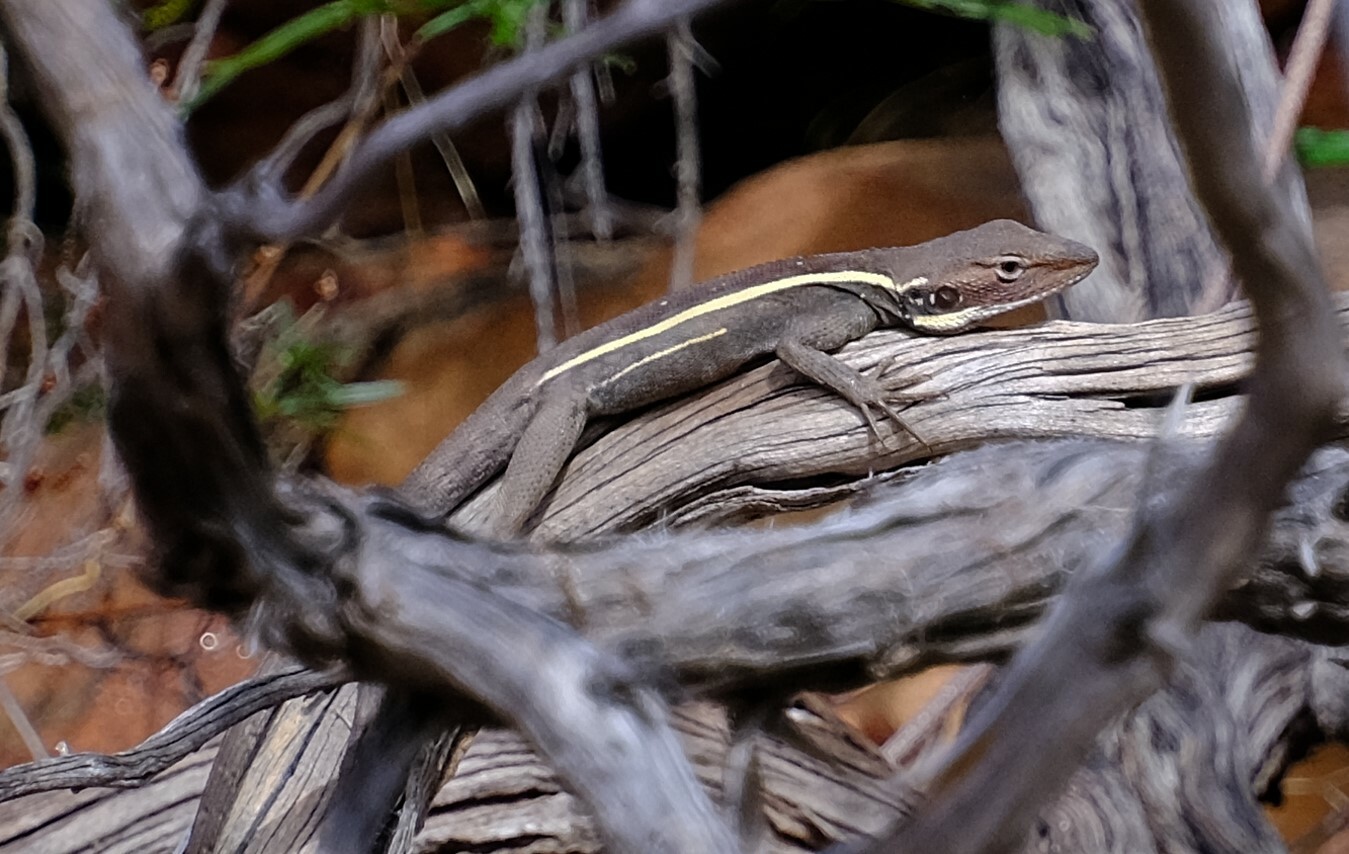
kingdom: Animalia
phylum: Chordata
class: Squamata
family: Agamidae
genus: Gowidon
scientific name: Gowidon longirostris
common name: Long-nosed water dragon
